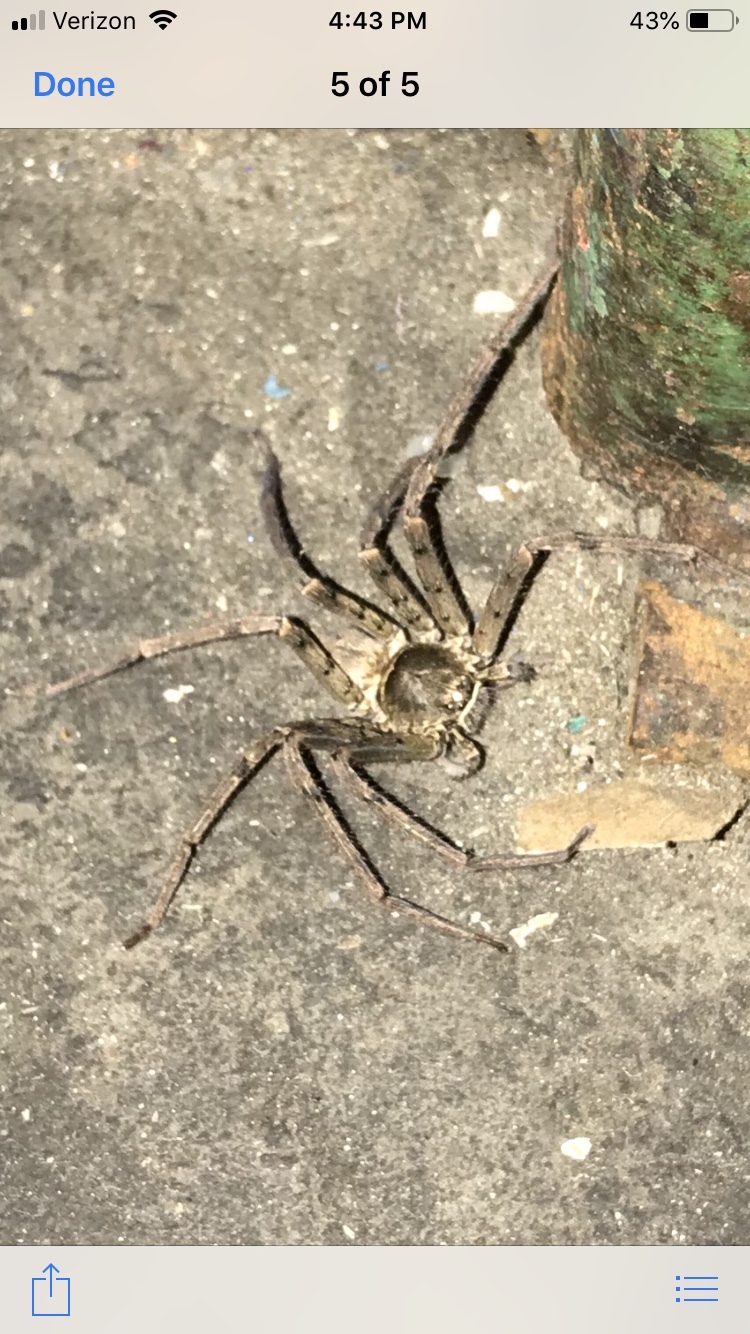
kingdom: Animalia
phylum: Arthropoda
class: Arachnida
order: Araneae
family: Sparassidae
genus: Heteropoda
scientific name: Heteropoda venatoria
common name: Huntsman spider
